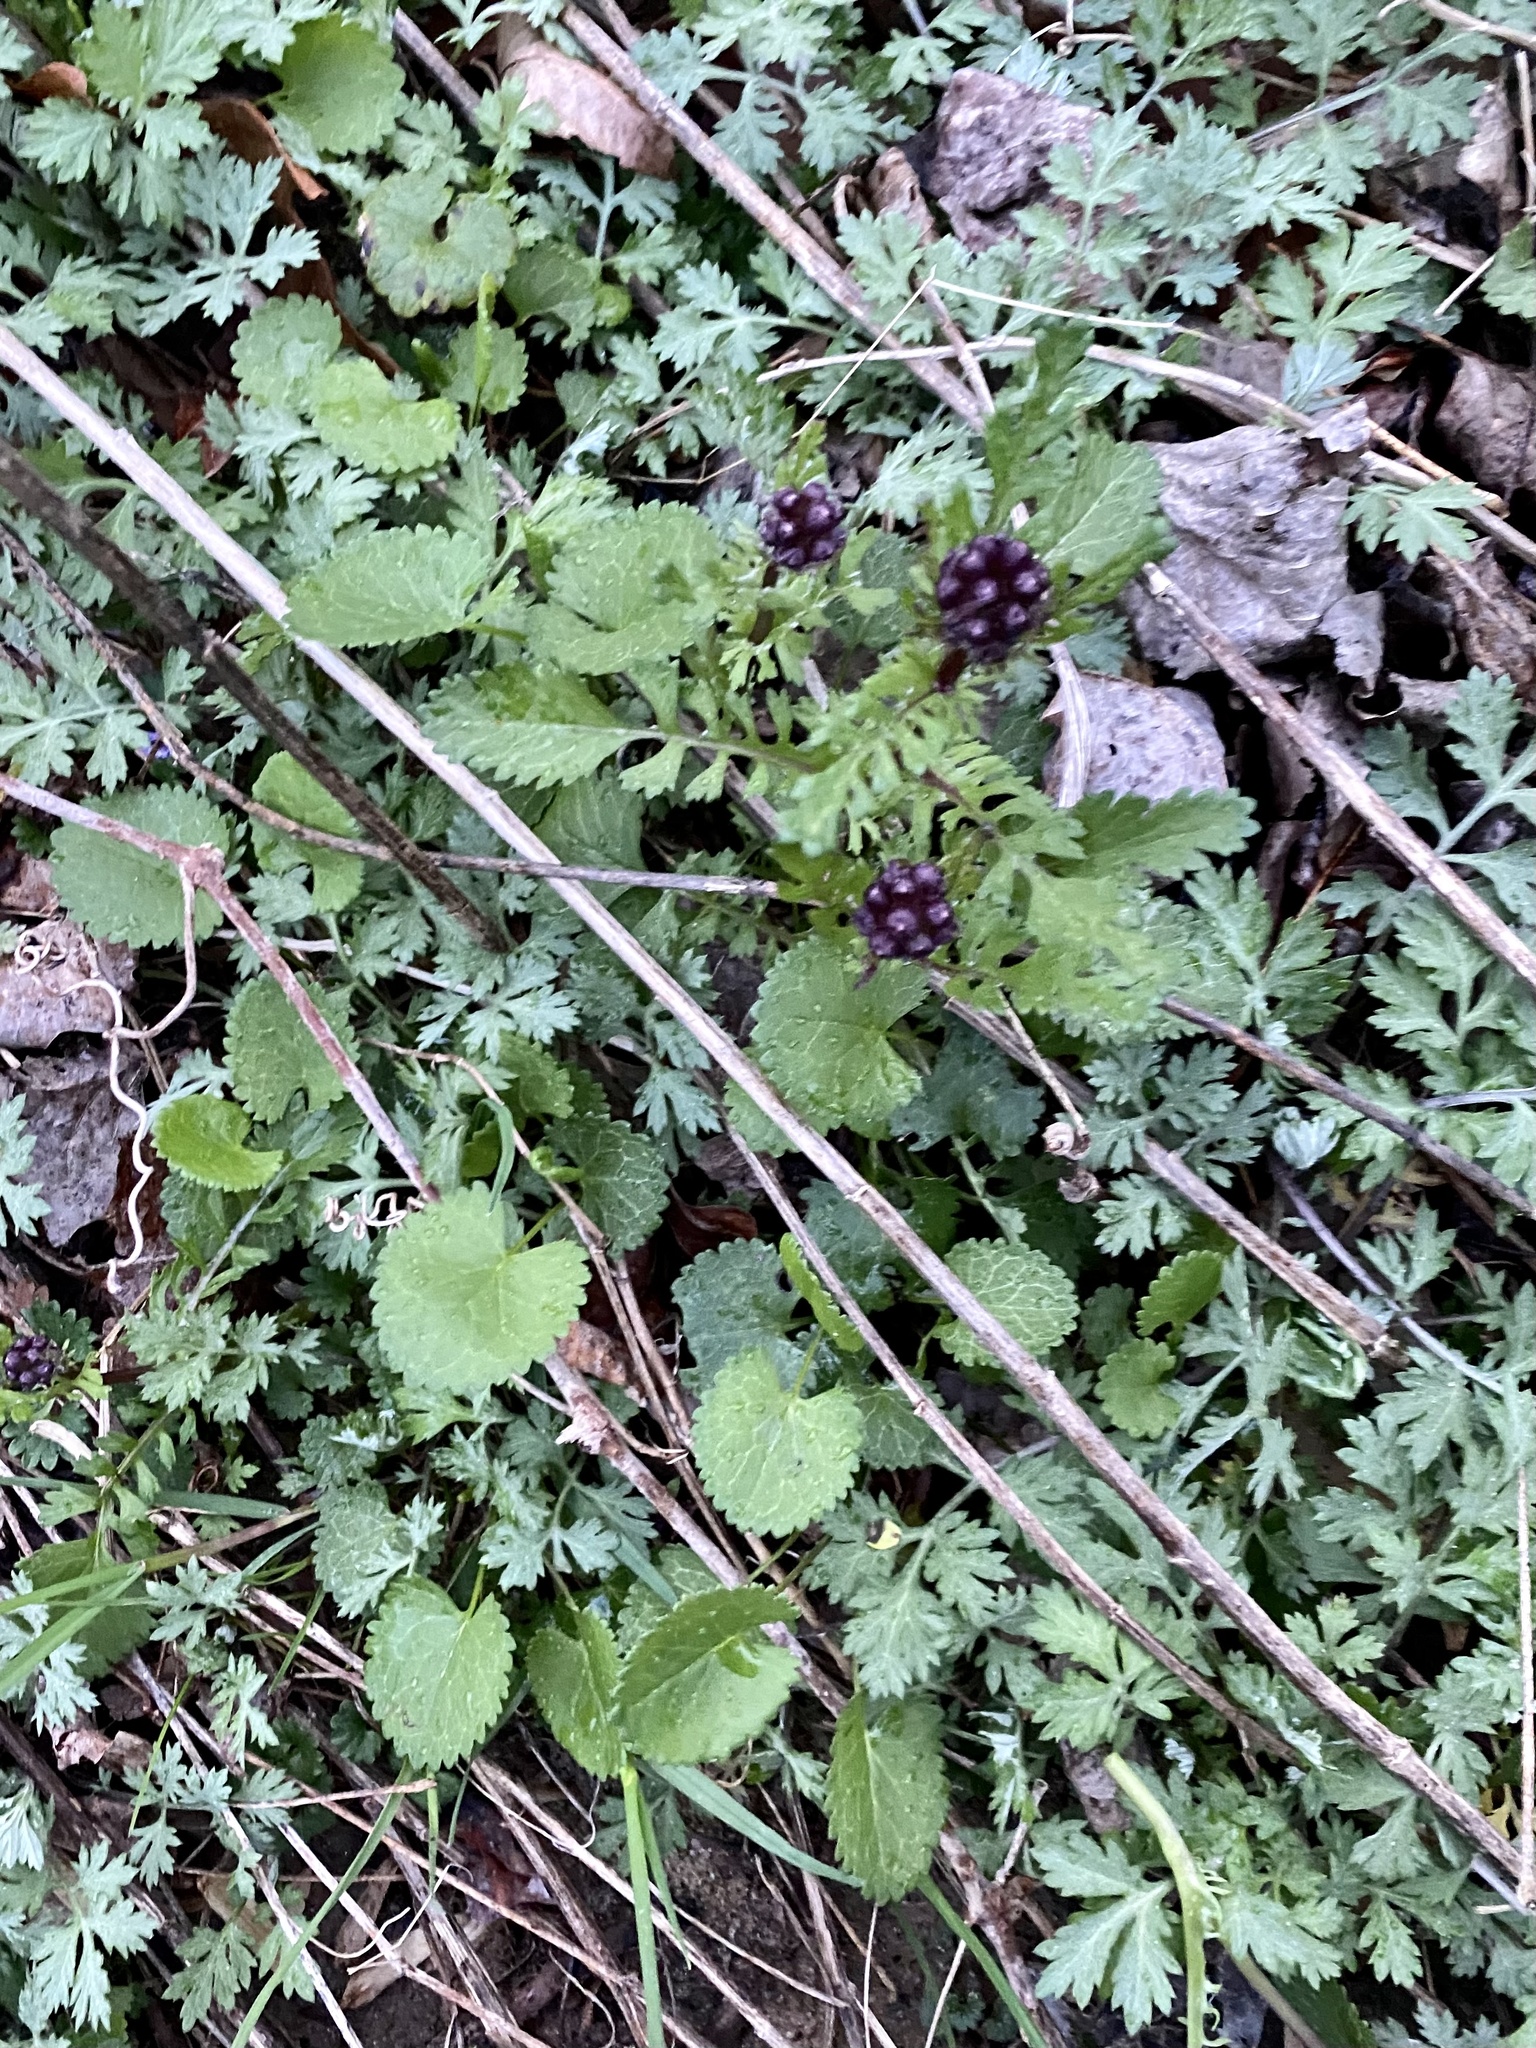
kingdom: Plantae
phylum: Tracheophyta
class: Magnoliopsida
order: Asterales
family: Asteraceae
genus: Packera
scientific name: Packera aurea
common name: Golden groundsel
